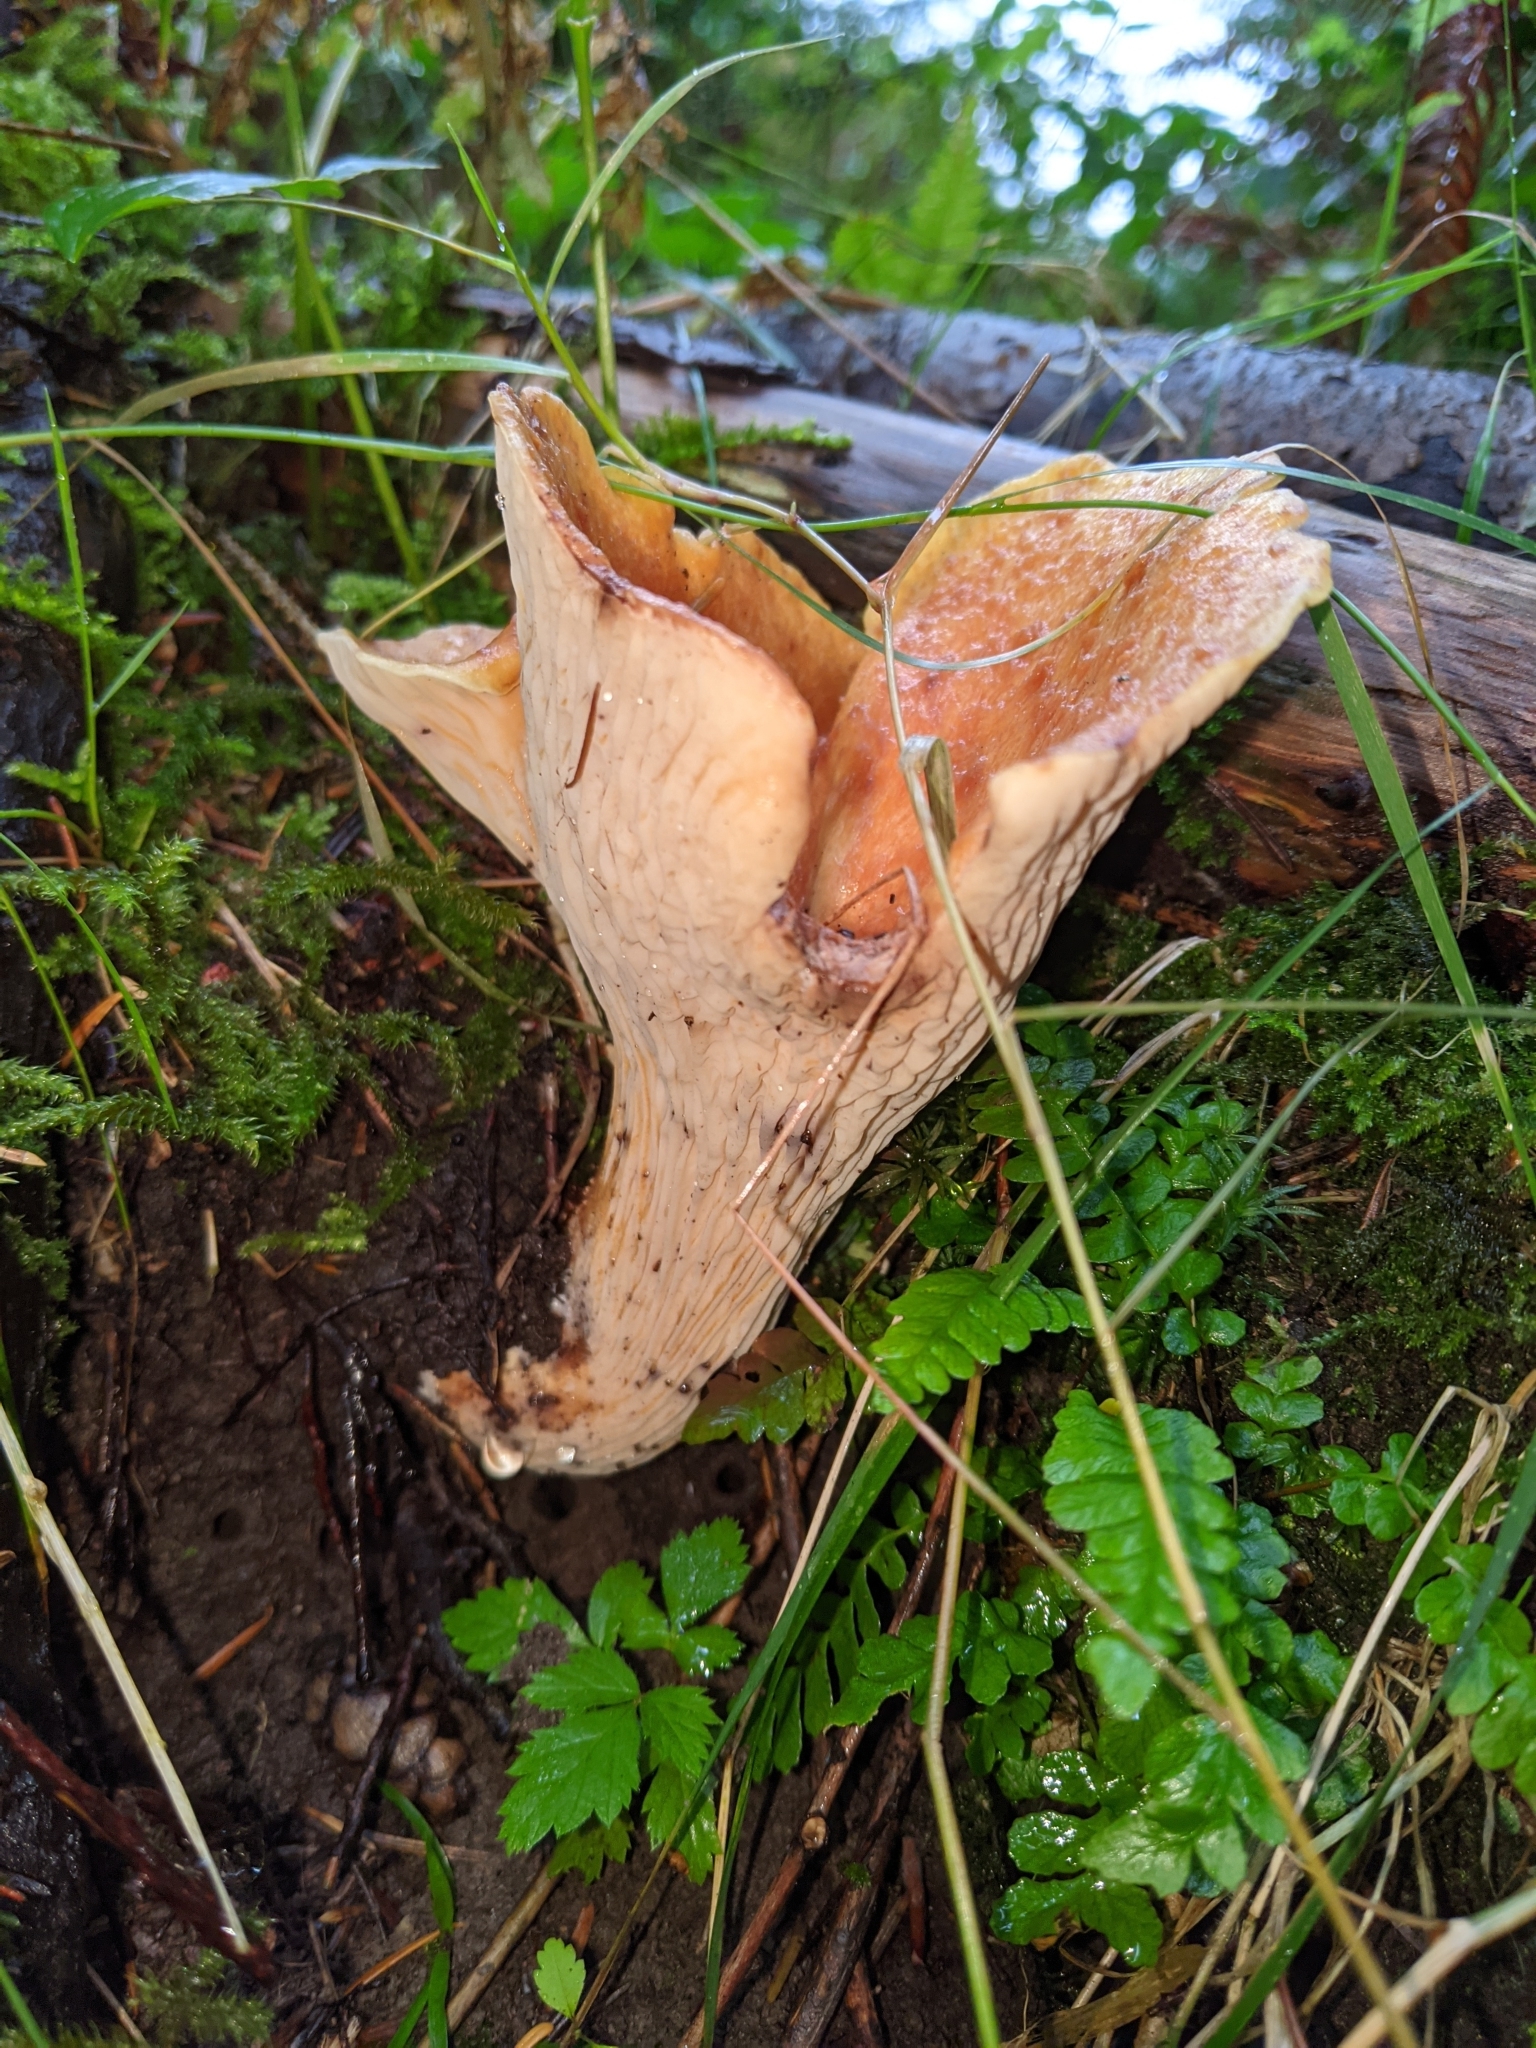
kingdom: Fungi
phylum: Basidiomycota
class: Agaricomycetes
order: Gomphales
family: Gomphaceae
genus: Turbinellus
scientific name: Turbinellus floccosus
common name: Scaly chanterelle
